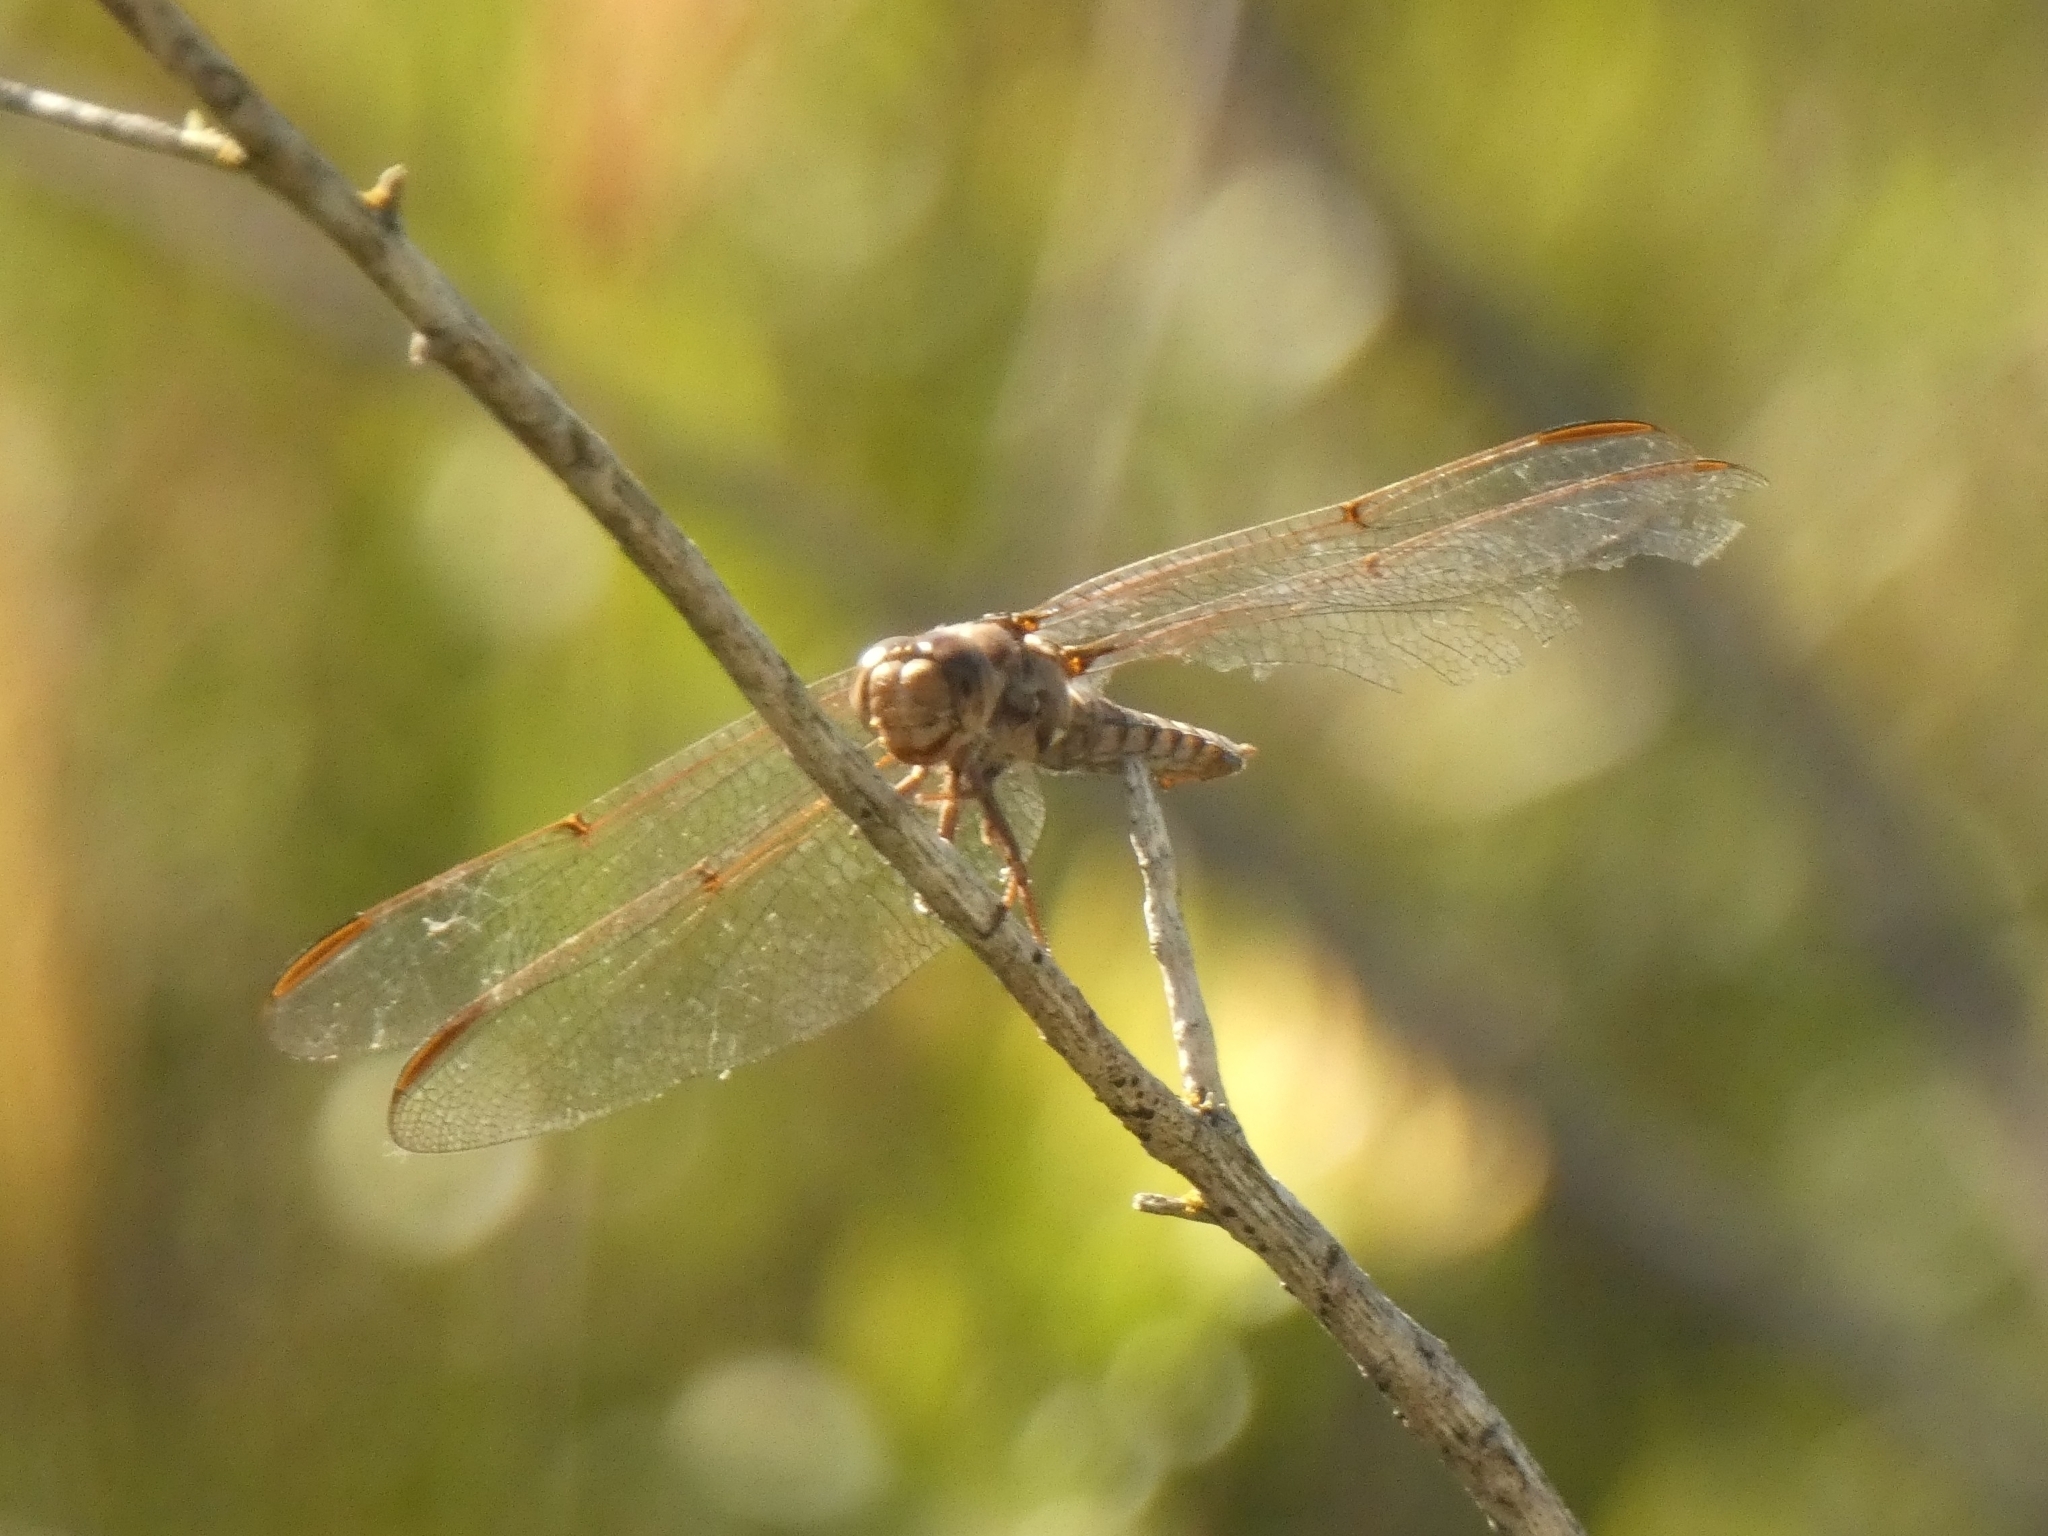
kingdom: Animalia
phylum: Arthropoda
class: Insecta
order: Odonata
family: Libellulidae
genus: Orthemis
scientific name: Orthemis nodiplaga
